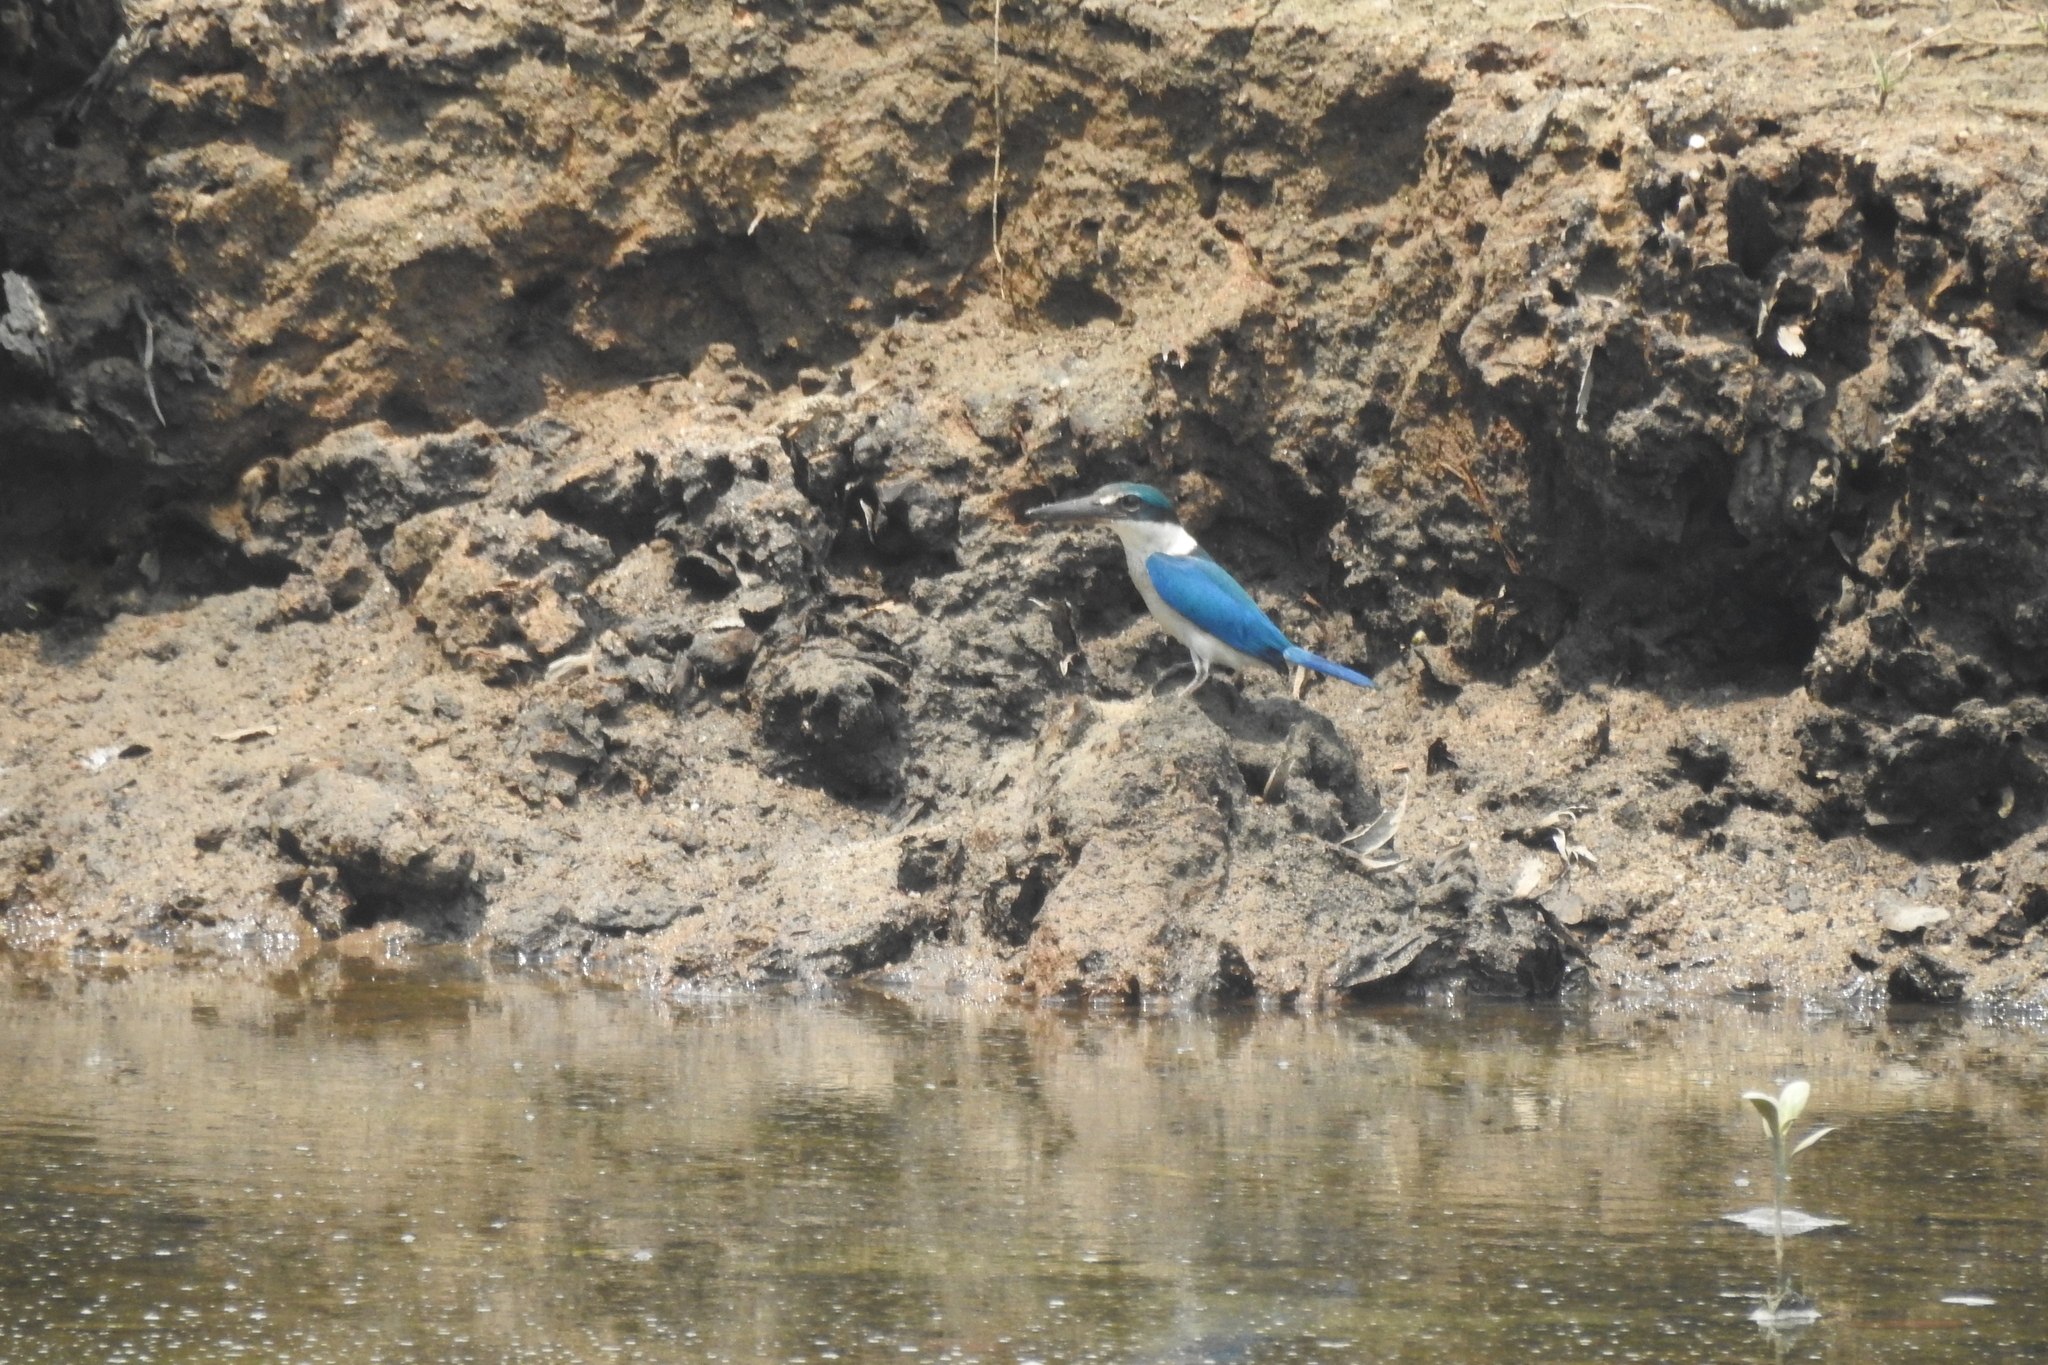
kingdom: Animalia
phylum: Chordata
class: Aves
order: Coraciiformes
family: Alcedinidae
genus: Todiramphus
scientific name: Todiramphus chloris
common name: Collared kingfisher
